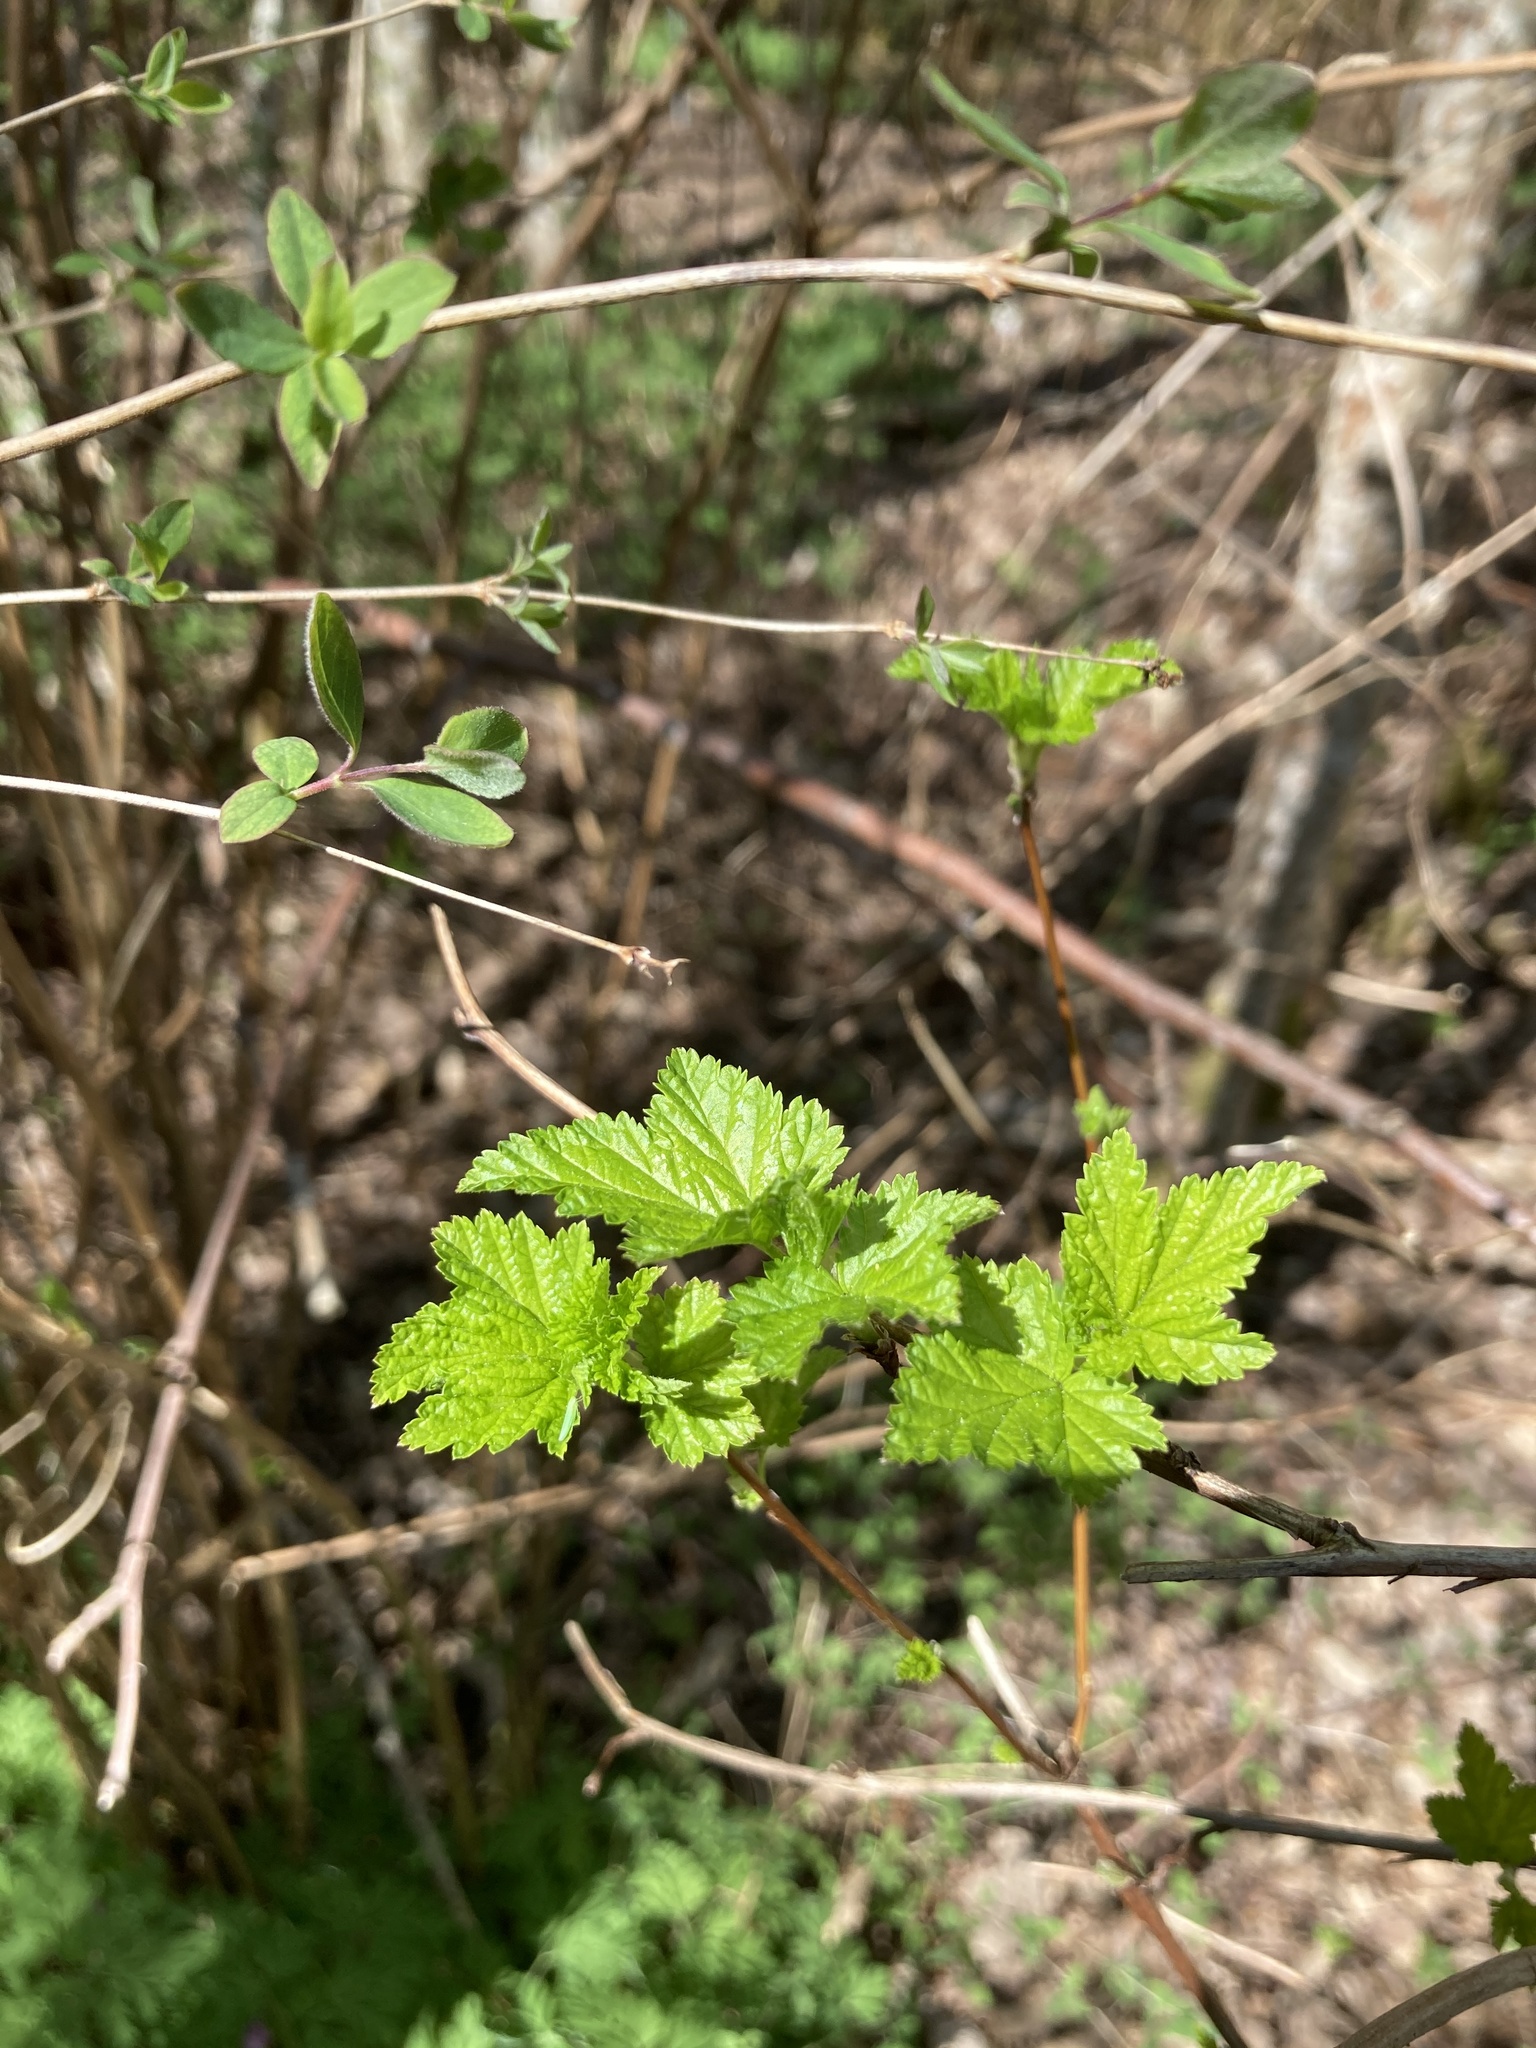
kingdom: Plantae
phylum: Tracheophyta
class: Magnoliopsida
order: Rosales
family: Rosaceae
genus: Rubus
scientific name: Rubus spectabilis
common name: Salmonberry
